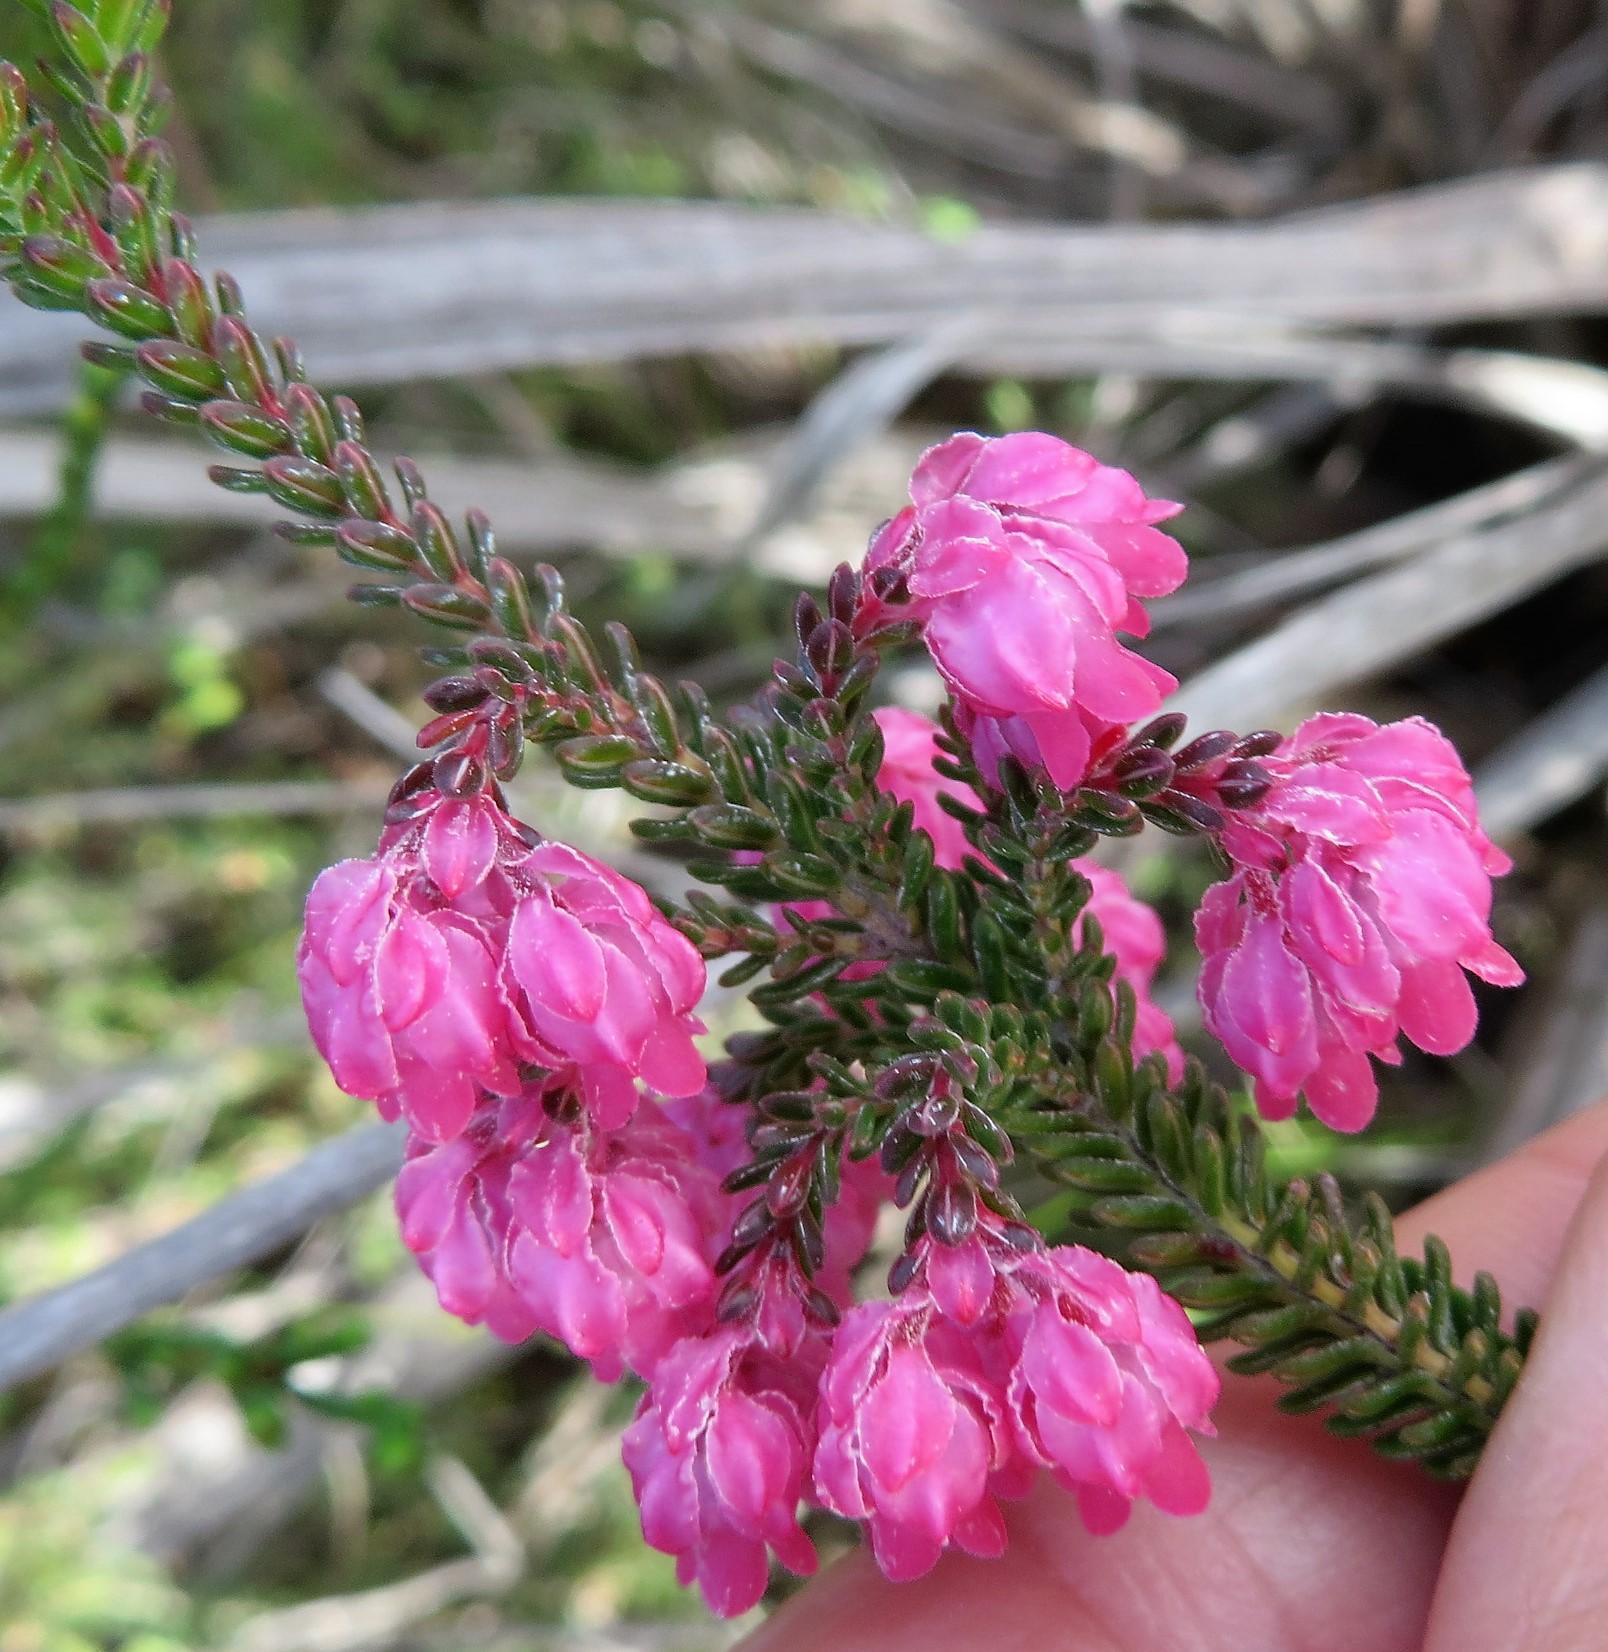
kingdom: Plantae
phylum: Tracheophyta
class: Magnoliopsida
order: Ericales
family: Ericaceae
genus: Erica
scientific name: Erica tegulifolia
